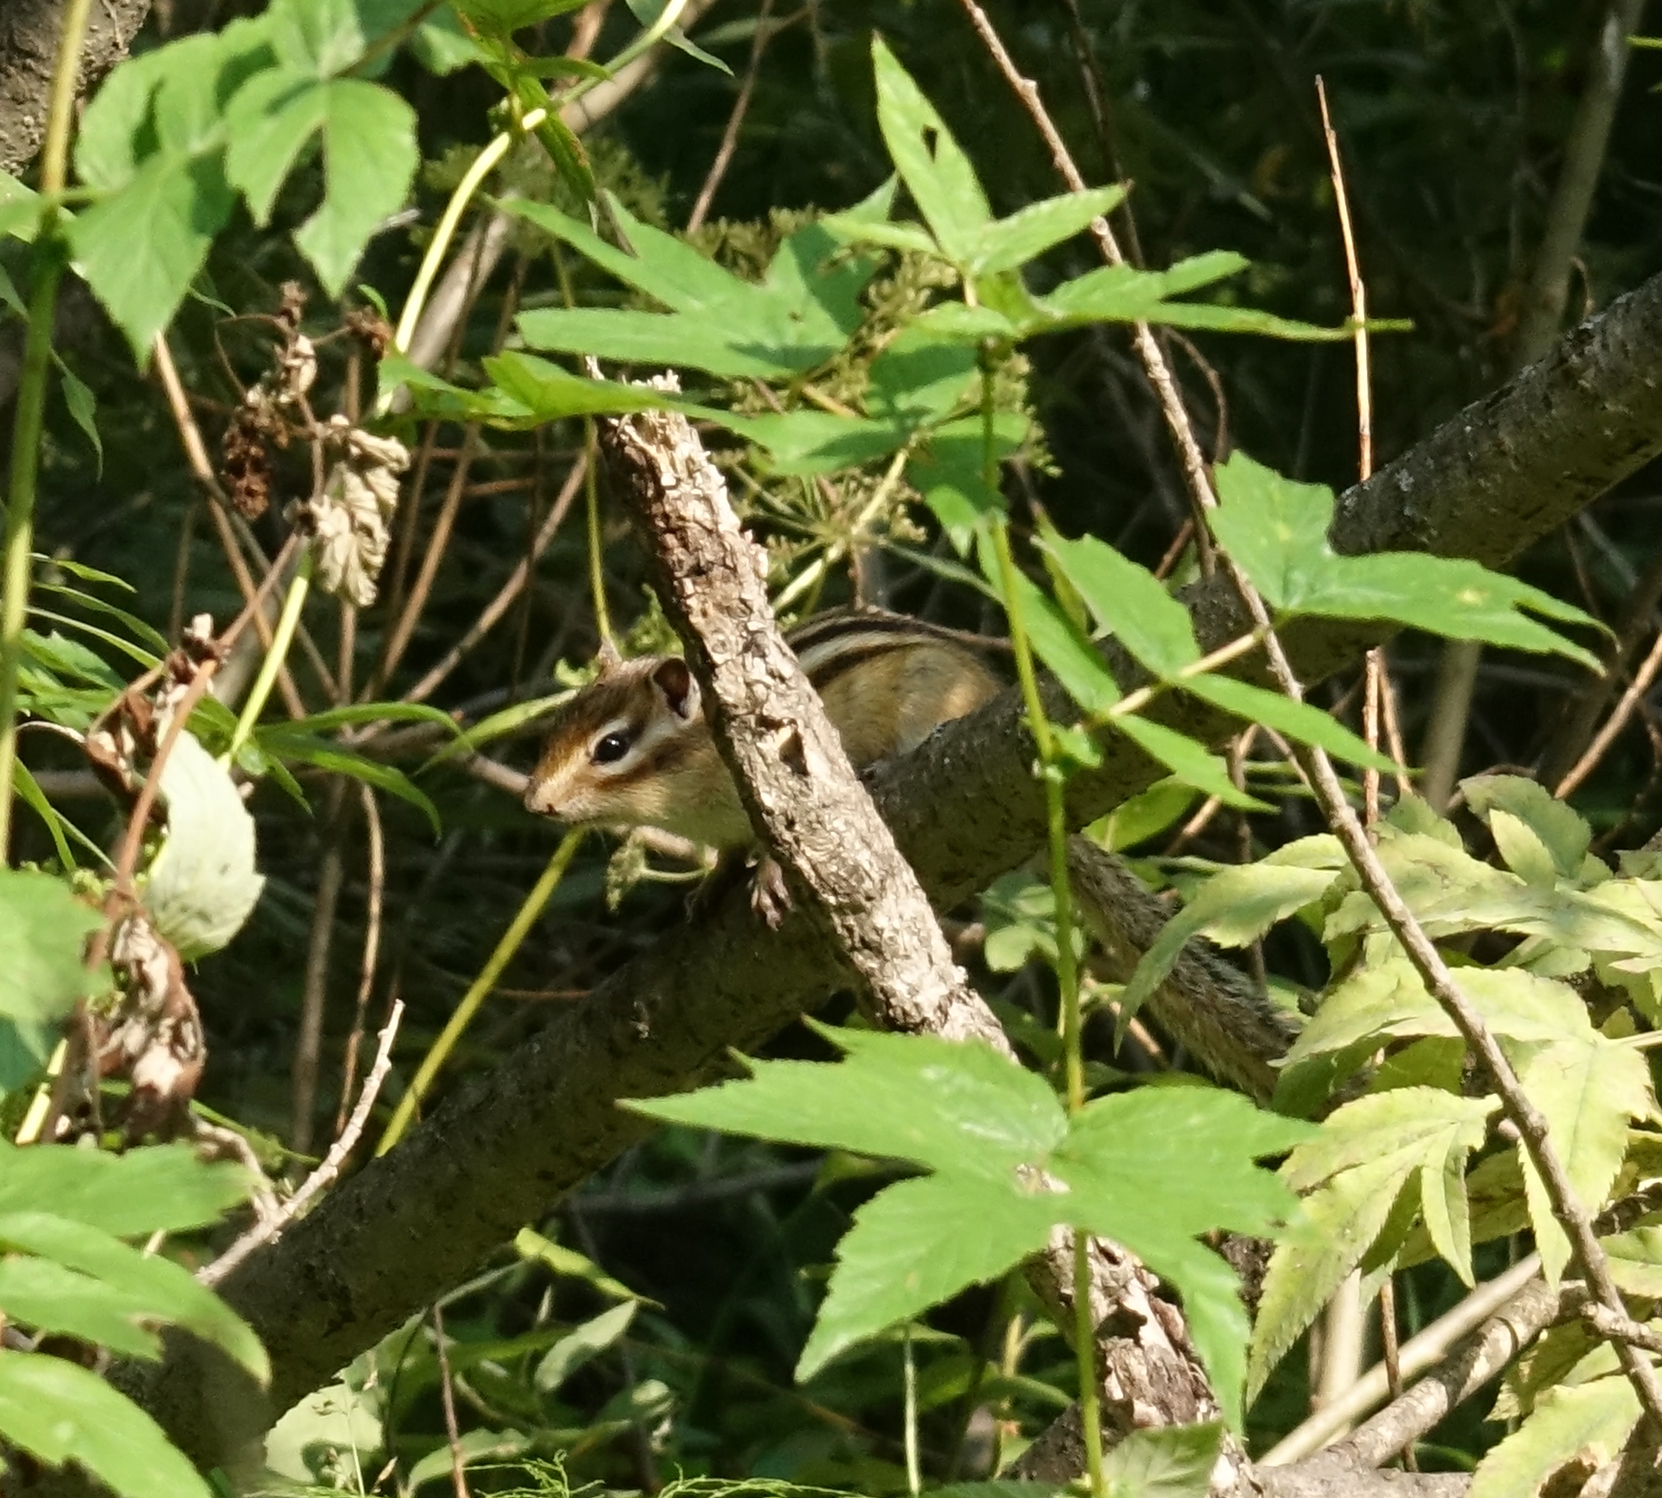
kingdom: Animalia
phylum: Chordata
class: Mammalia
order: Rodentia
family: Sciuridae
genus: Tamias
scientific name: Tamias sibiricus
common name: Siberian chipmunk
